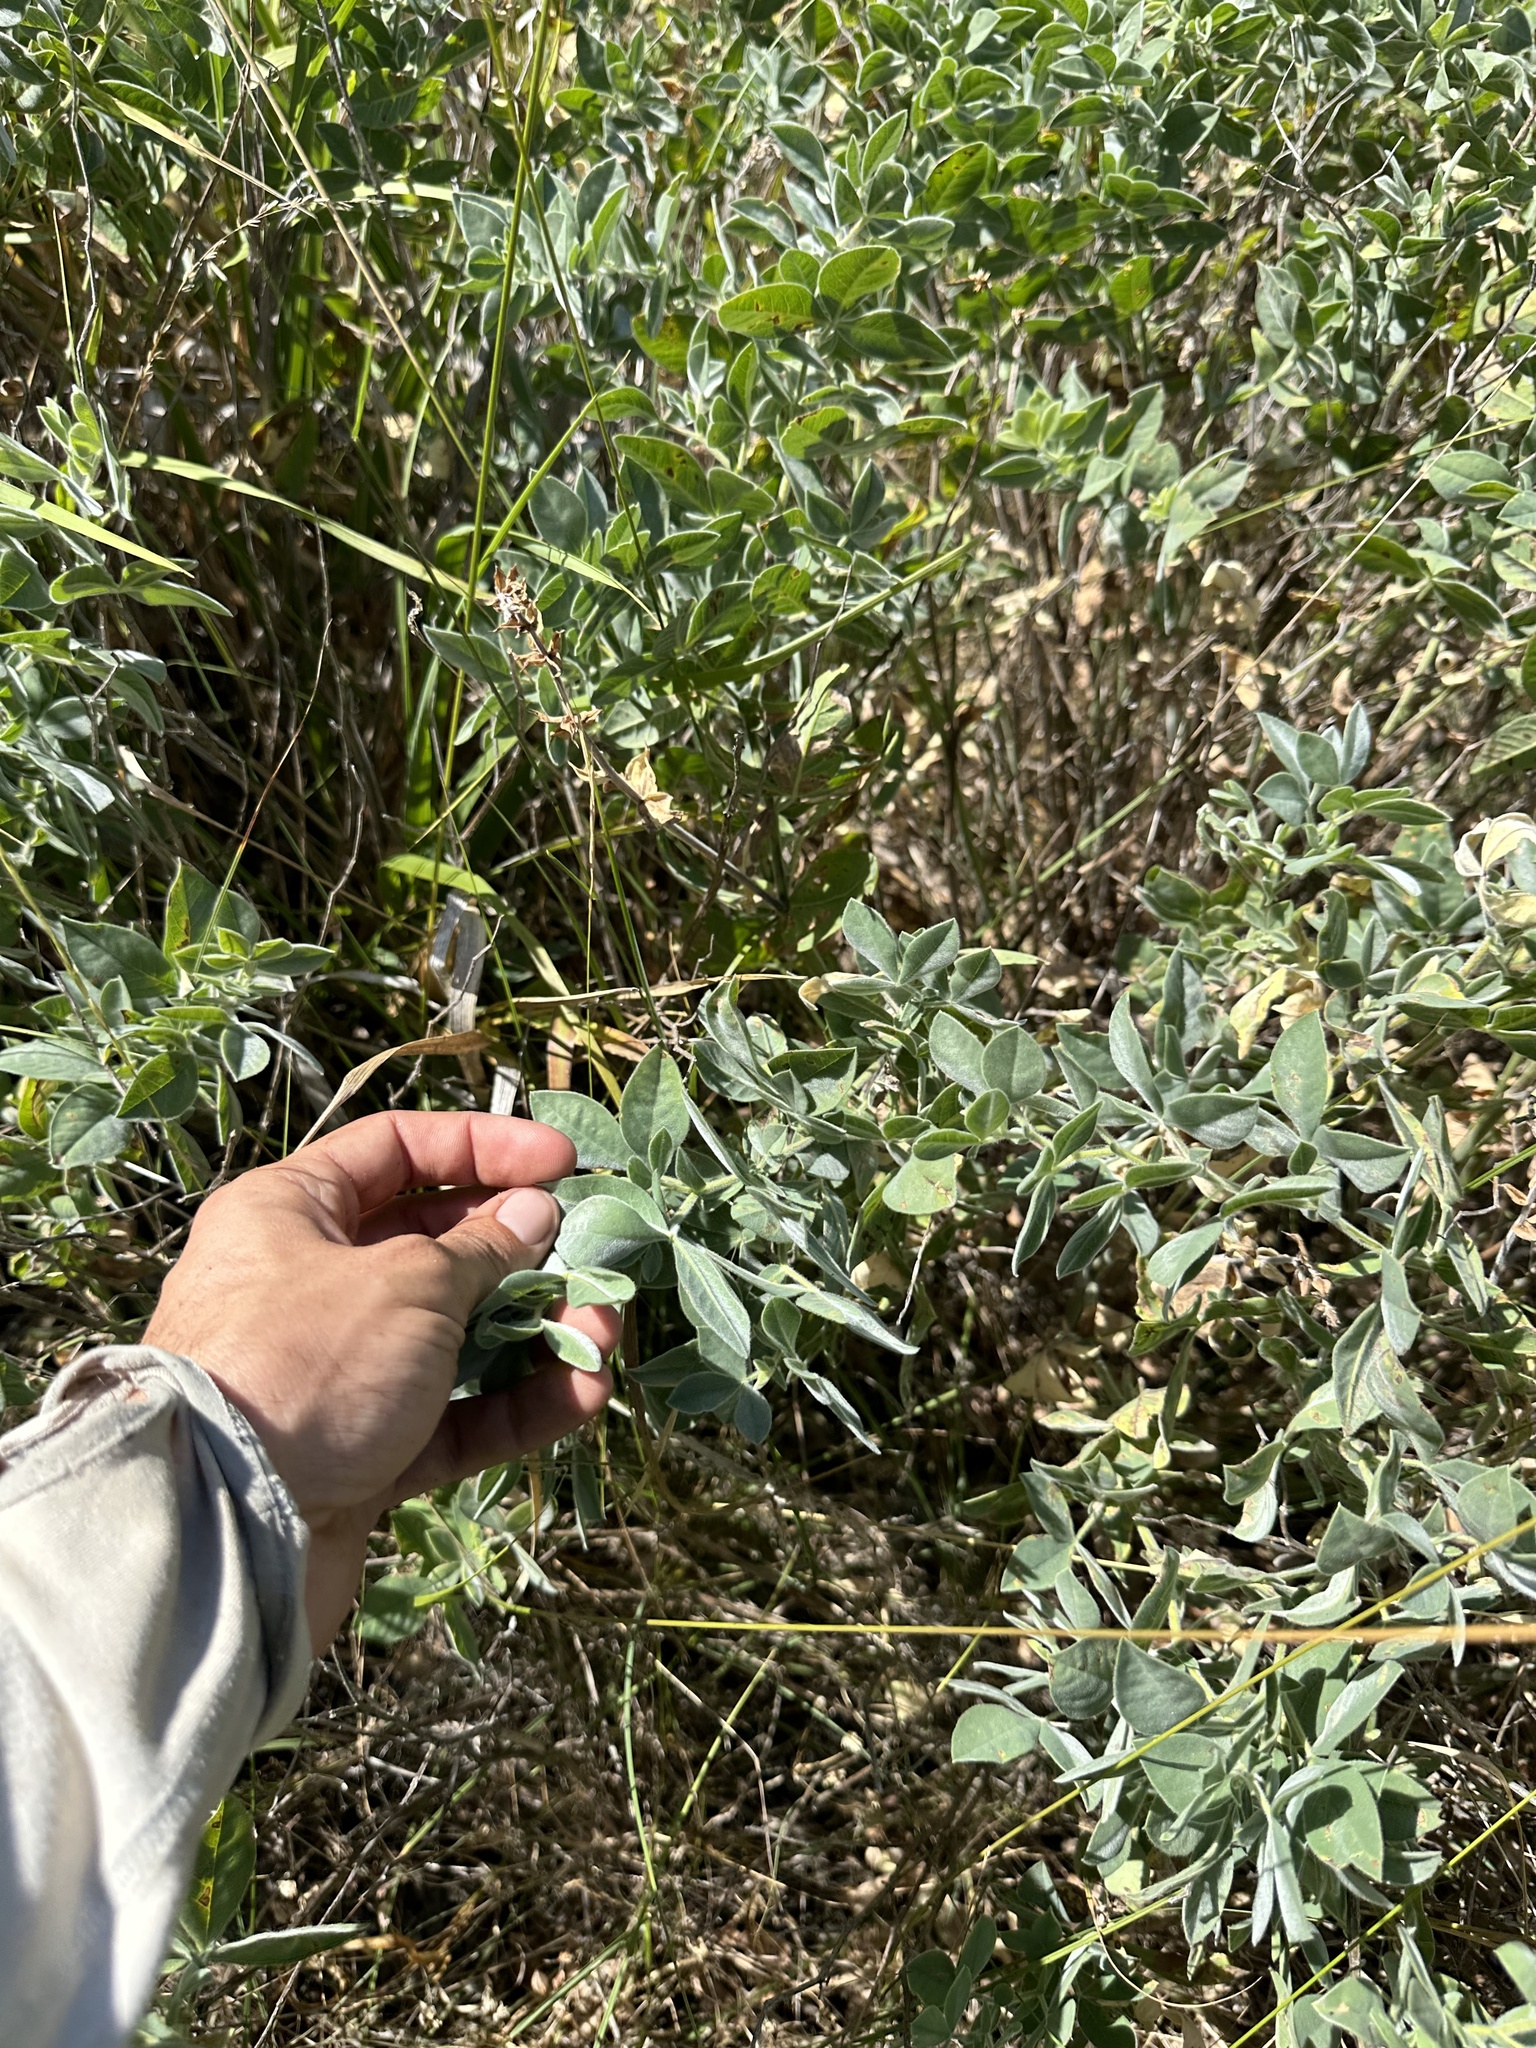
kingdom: Plantae
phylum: Tracheophyta
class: Magnoliopsida
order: Fabales
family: Fabaceae
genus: Thermopsis
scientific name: Thermopsis californica
